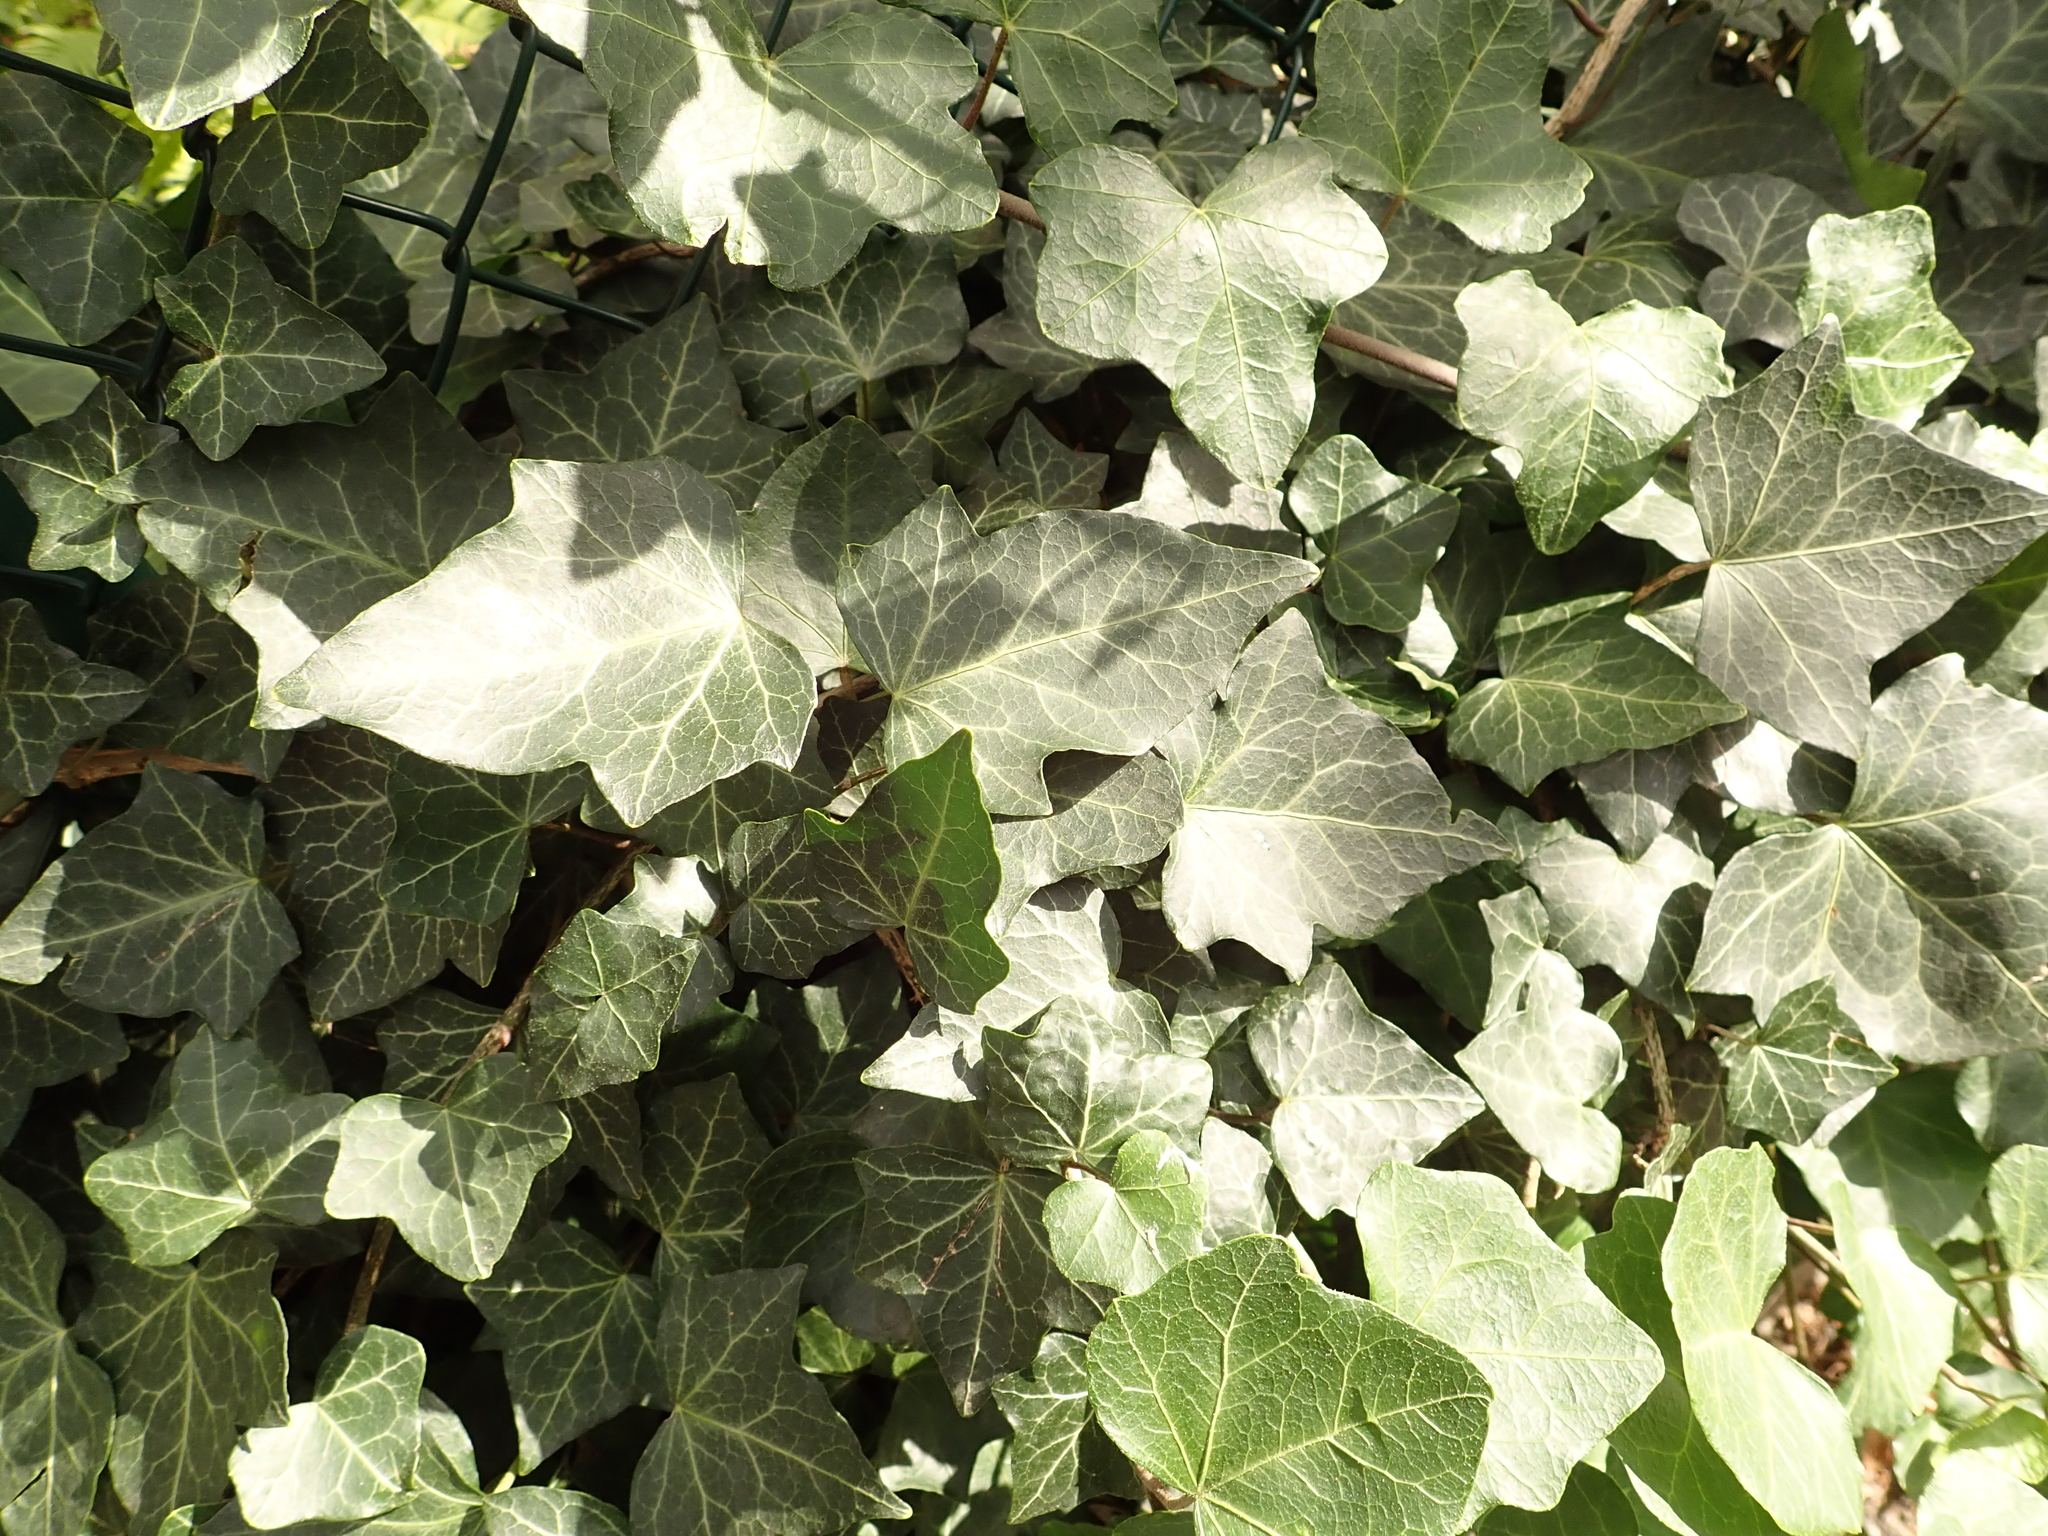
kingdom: Plantae
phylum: Tracheophyta
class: Magnoliopsida
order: Apiales
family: Araliaceae
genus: Hedera
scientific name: Hedera helix
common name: Ivy
